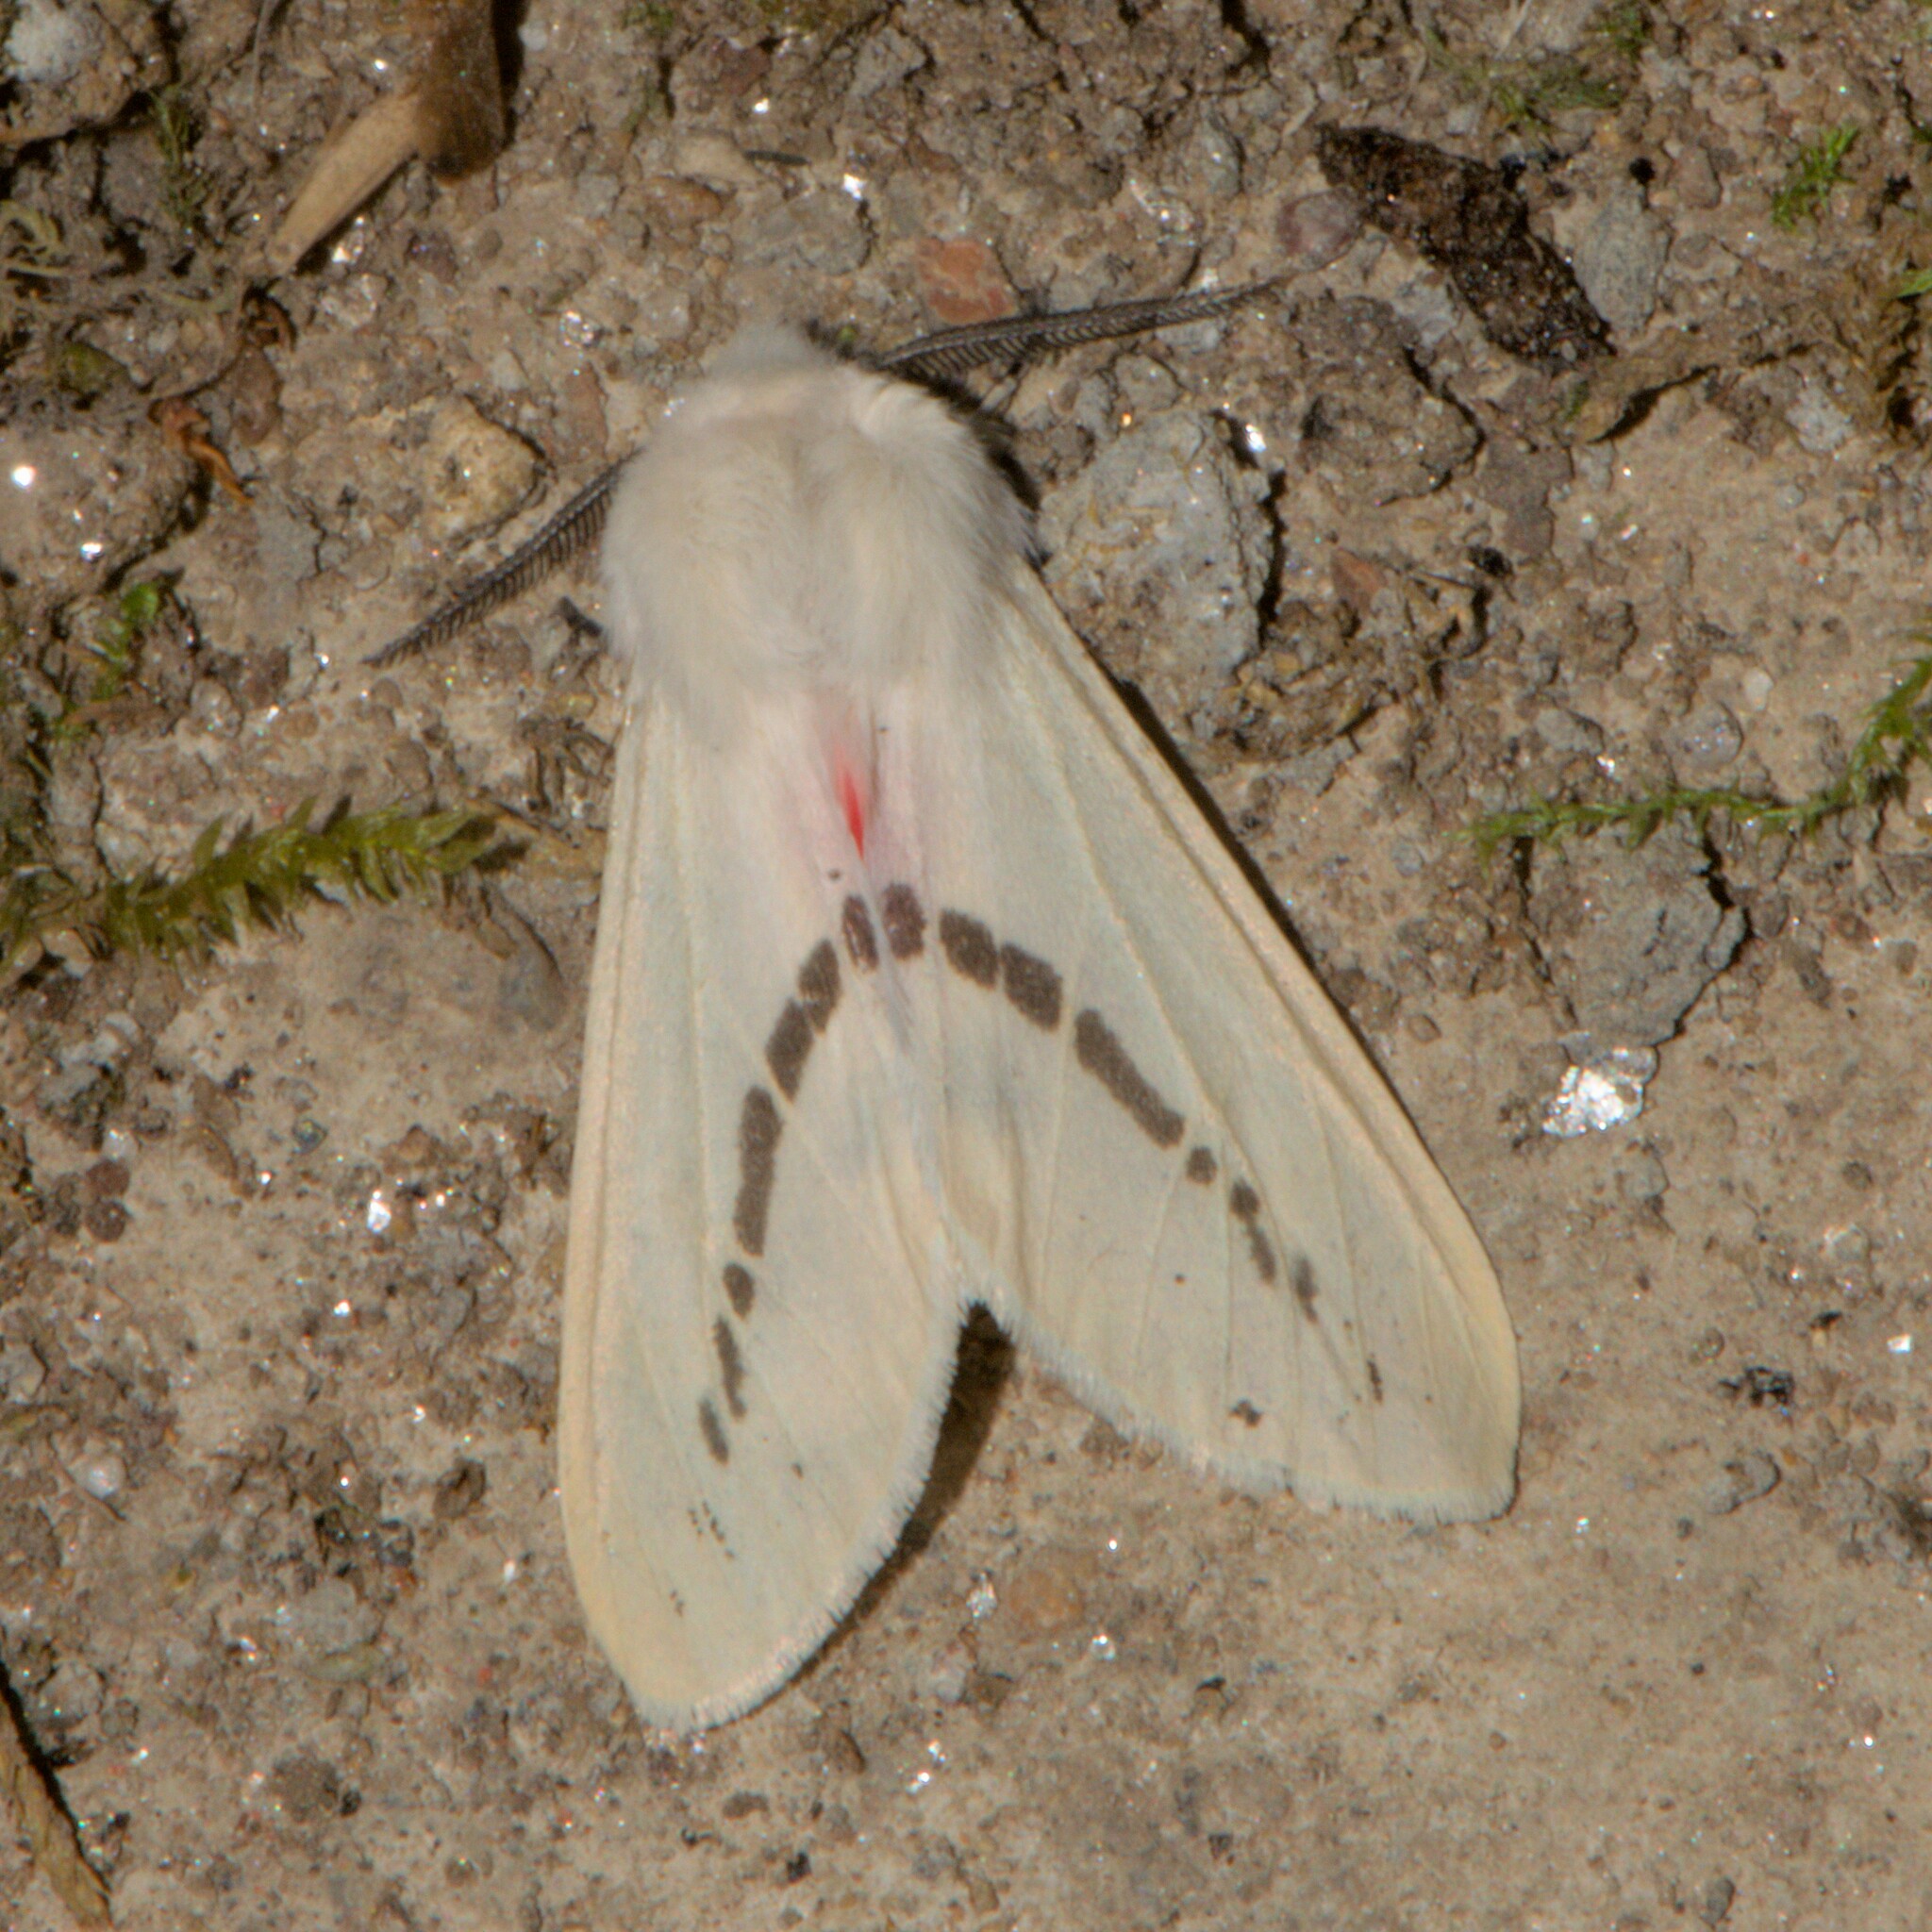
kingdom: Animalia
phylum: Arthropoda
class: Insecta
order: Lepidoptera
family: Erebidae
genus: Lemyra
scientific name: Lemyra punctilinea
